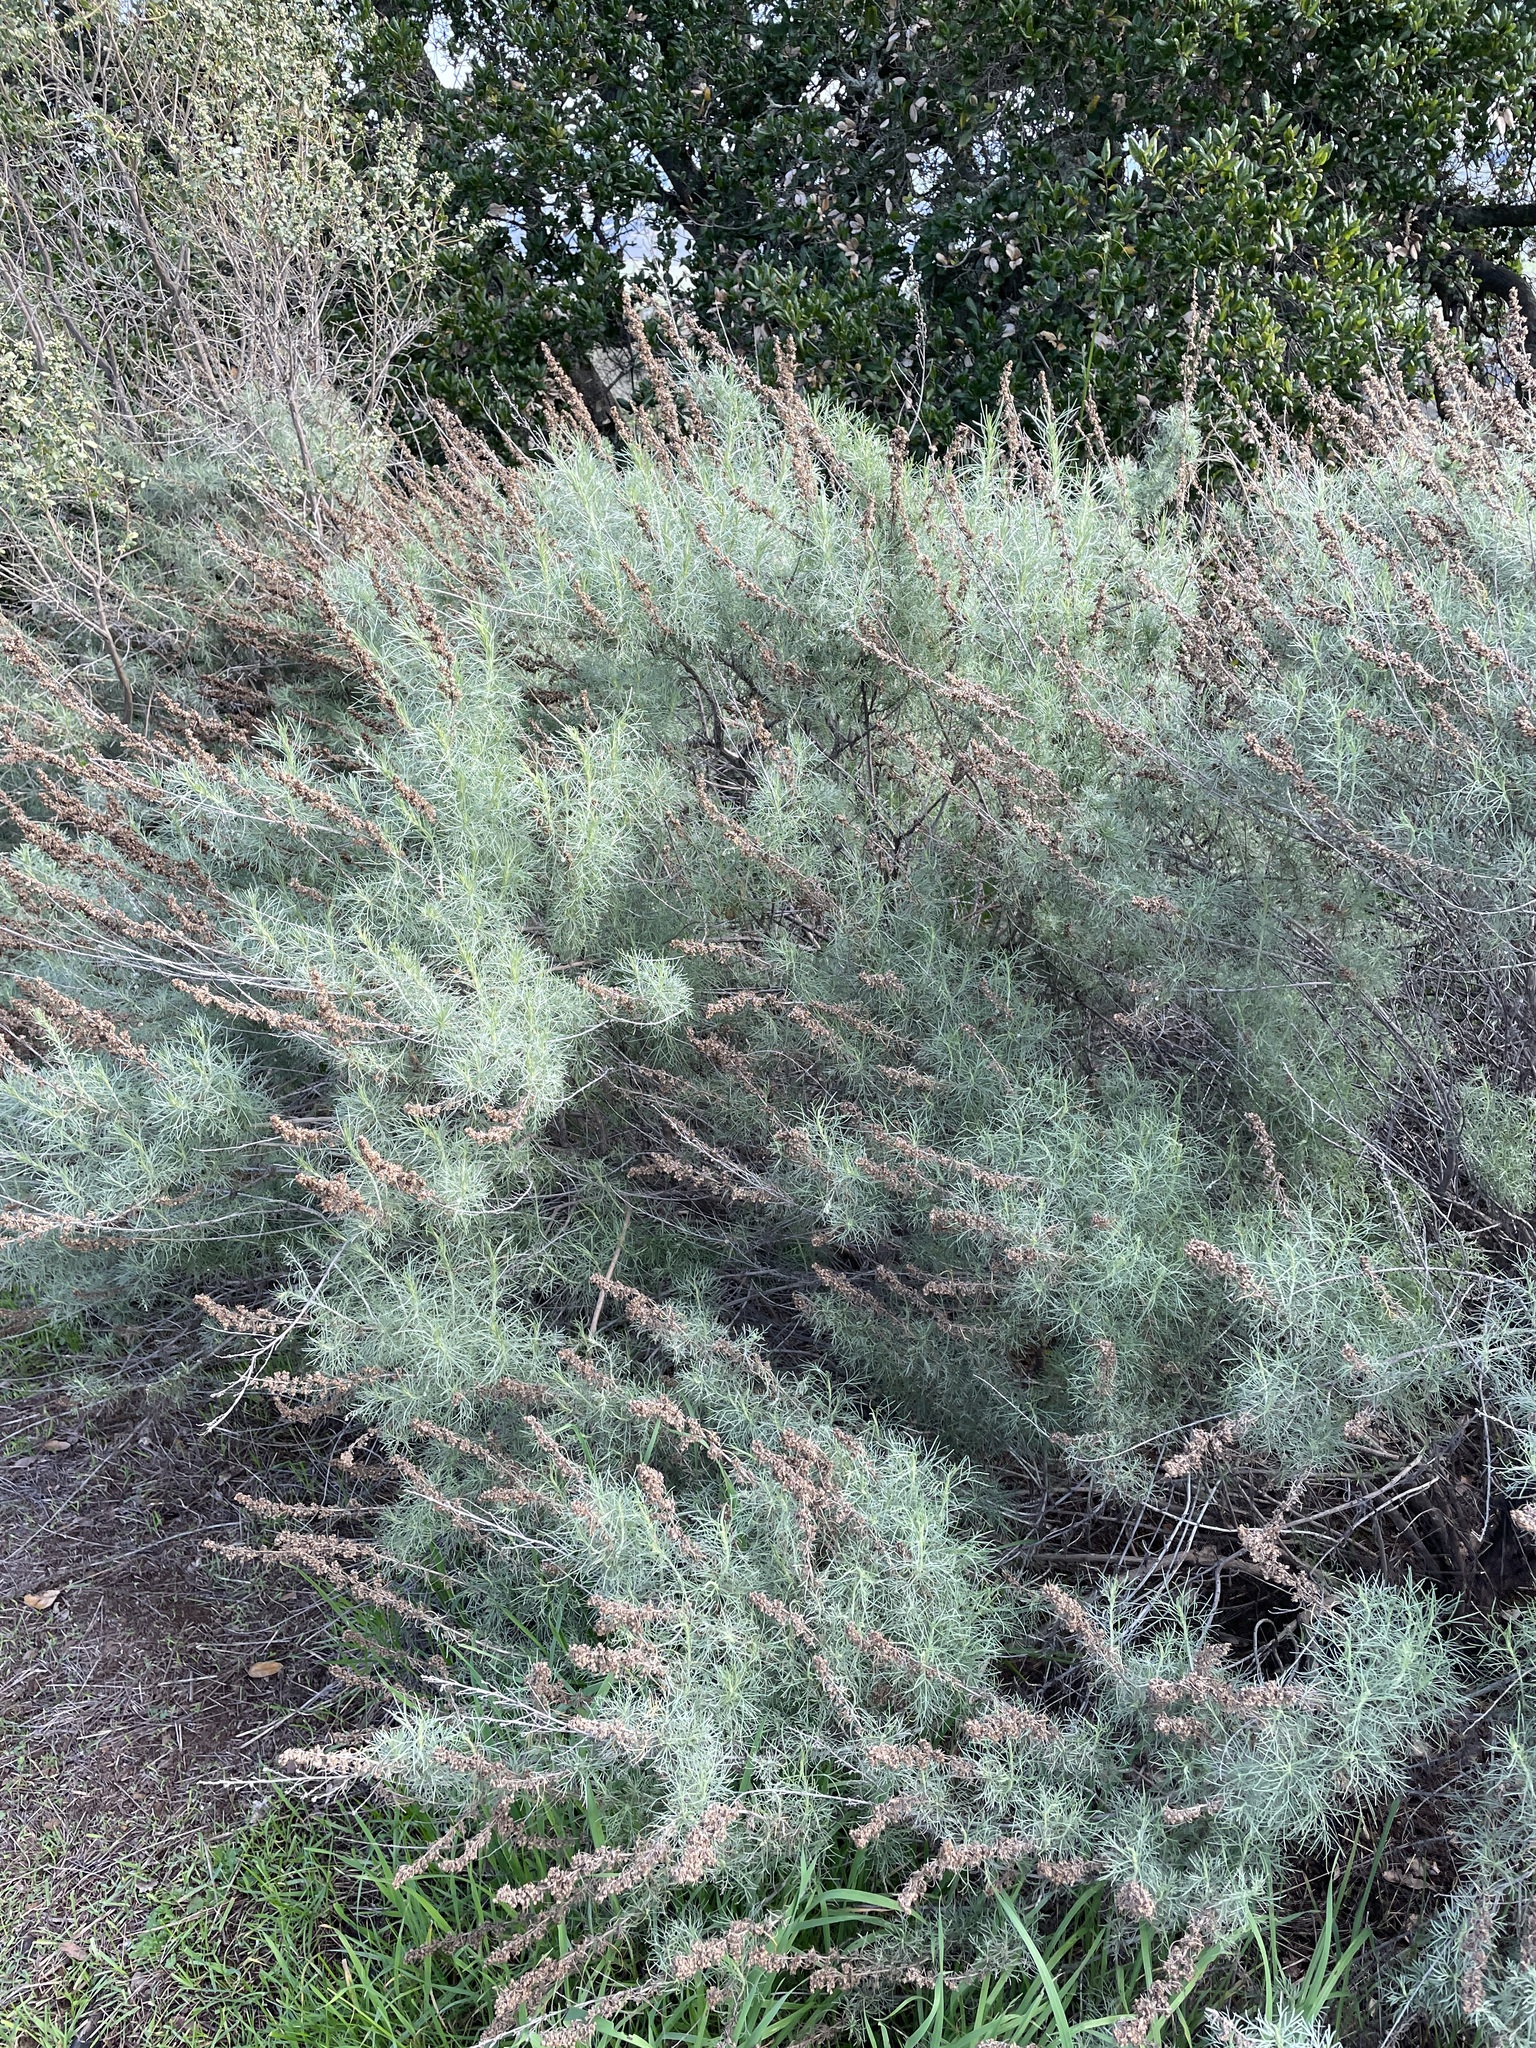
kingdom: Plantae
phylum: Tracheophyta
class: Magnoliopsida
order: Asterales
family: Asteraceae
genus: Artemisia
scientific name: Artemisia californica
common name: California sagebrush
